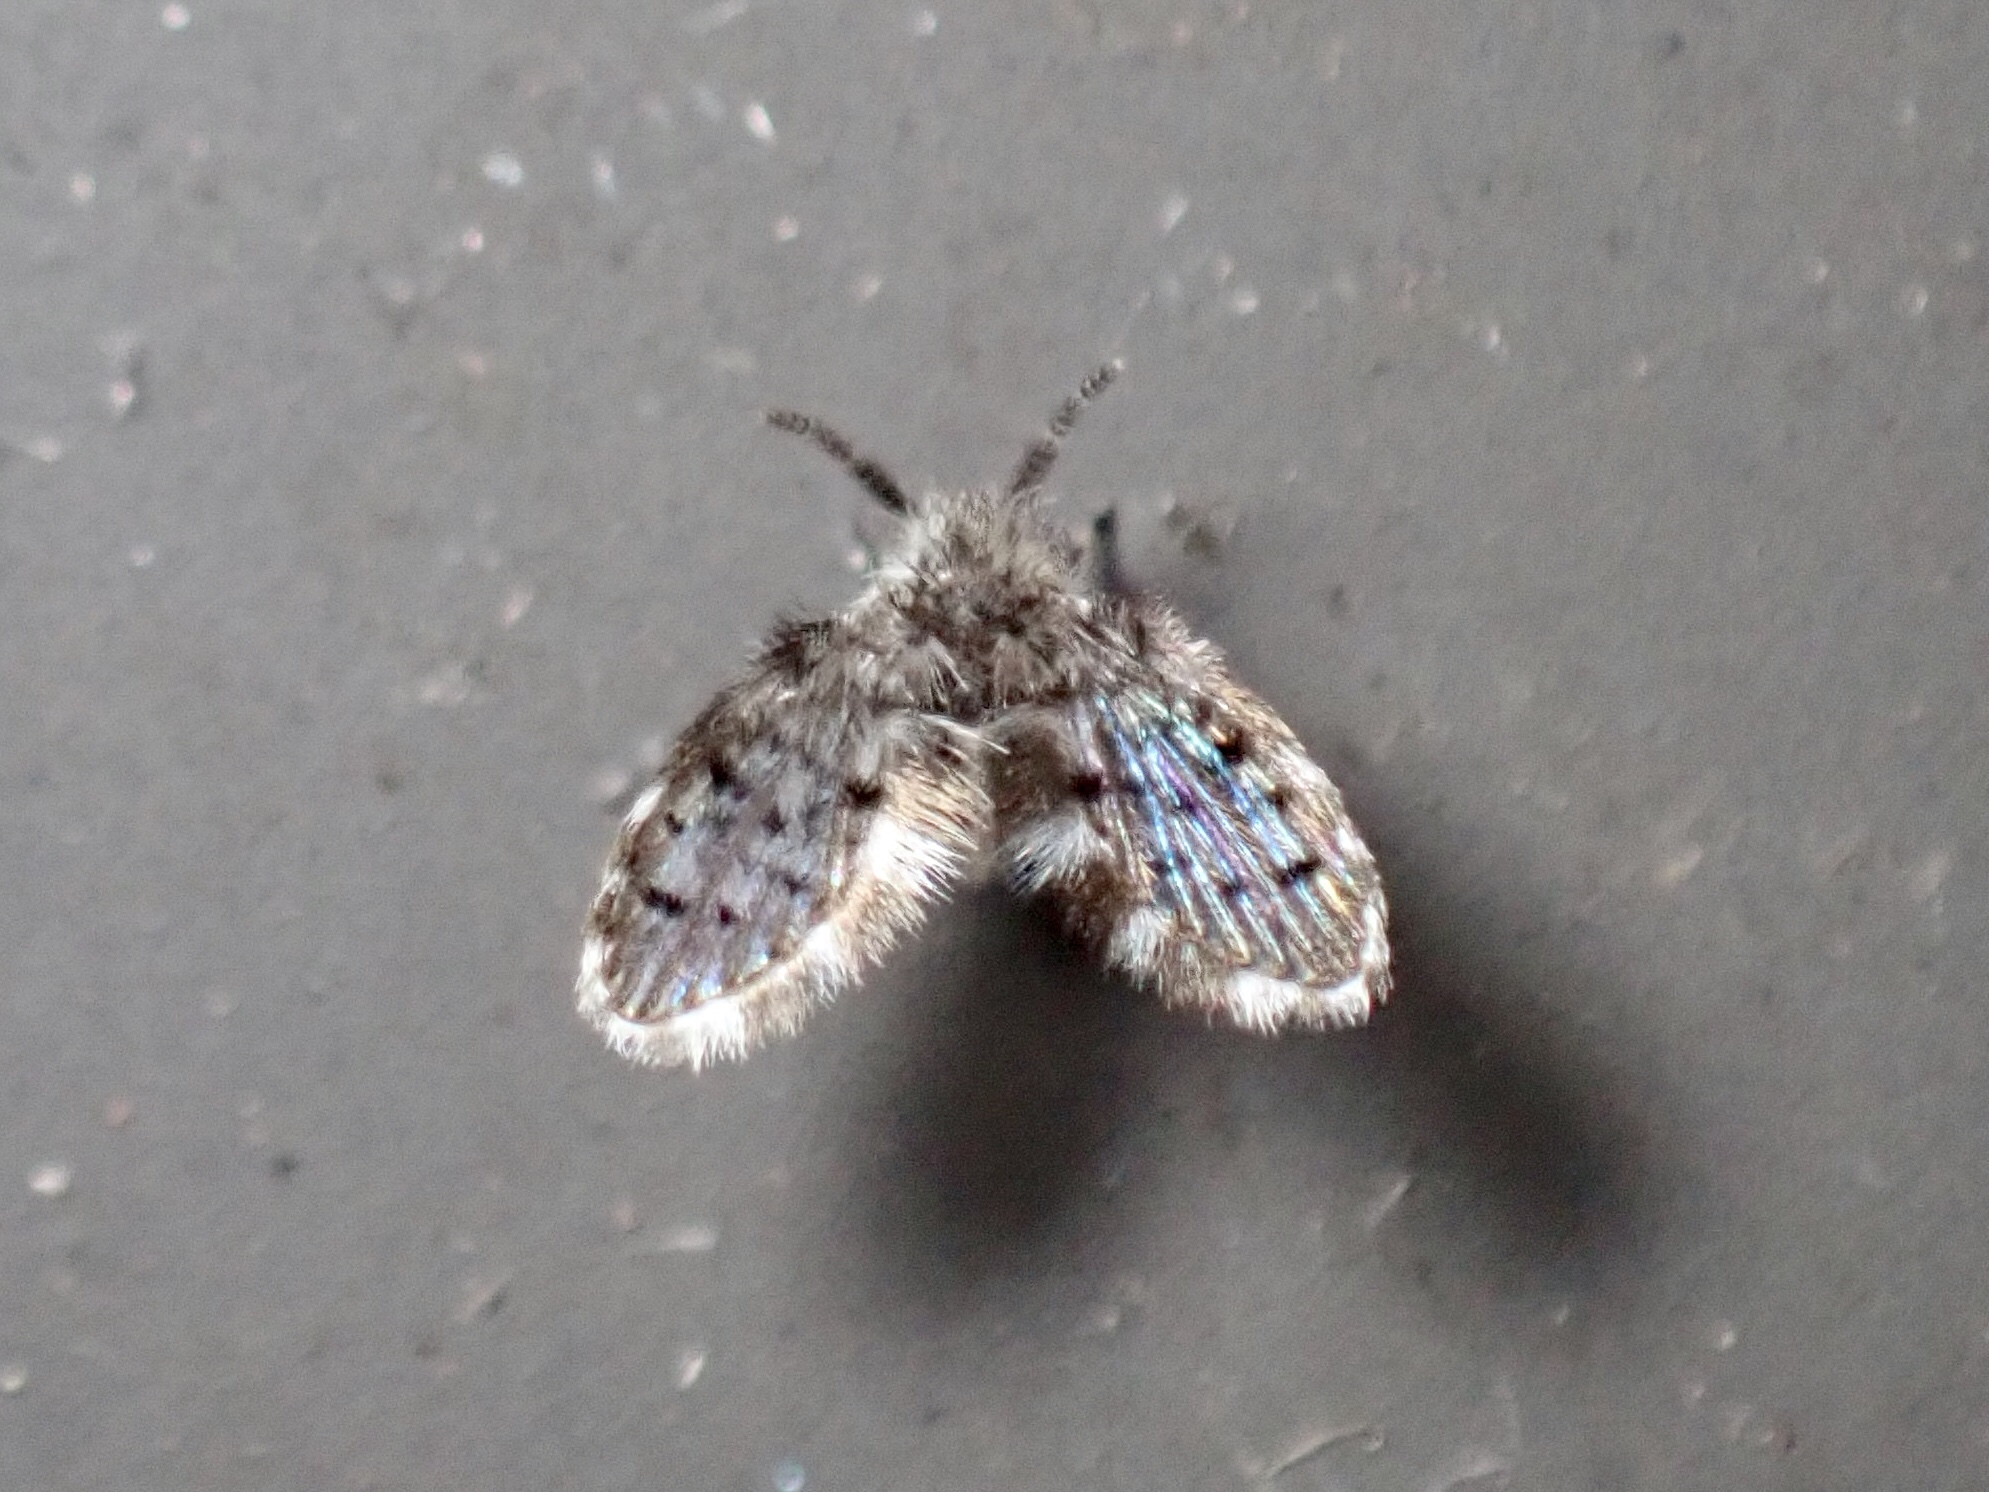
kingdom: Animalia
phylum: Arthropoda
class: Insecta
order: Diptera
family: Psychodidae
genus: Clogmia
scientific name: Clogmia albipunctatus
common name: White-spotted moth fly
